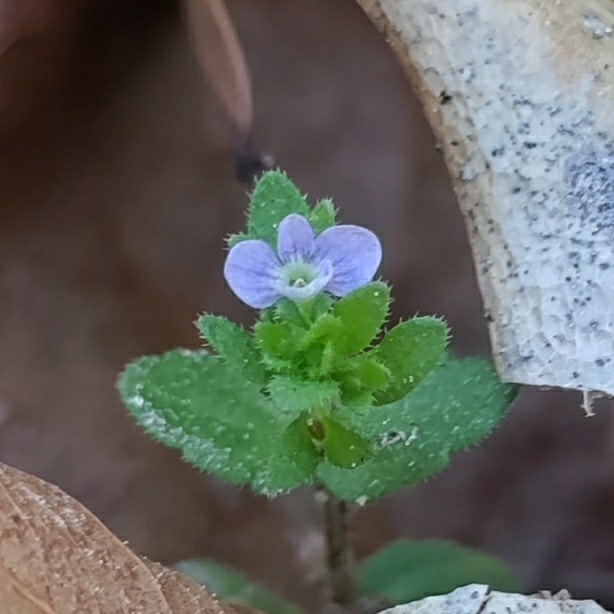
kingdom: Plantae
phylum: Tracheophyta
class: Magnoliopsida
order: Lamiales
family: Plantaginaceae
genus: Veronica
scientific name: Veronica arvensis
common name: Corn speedwell
